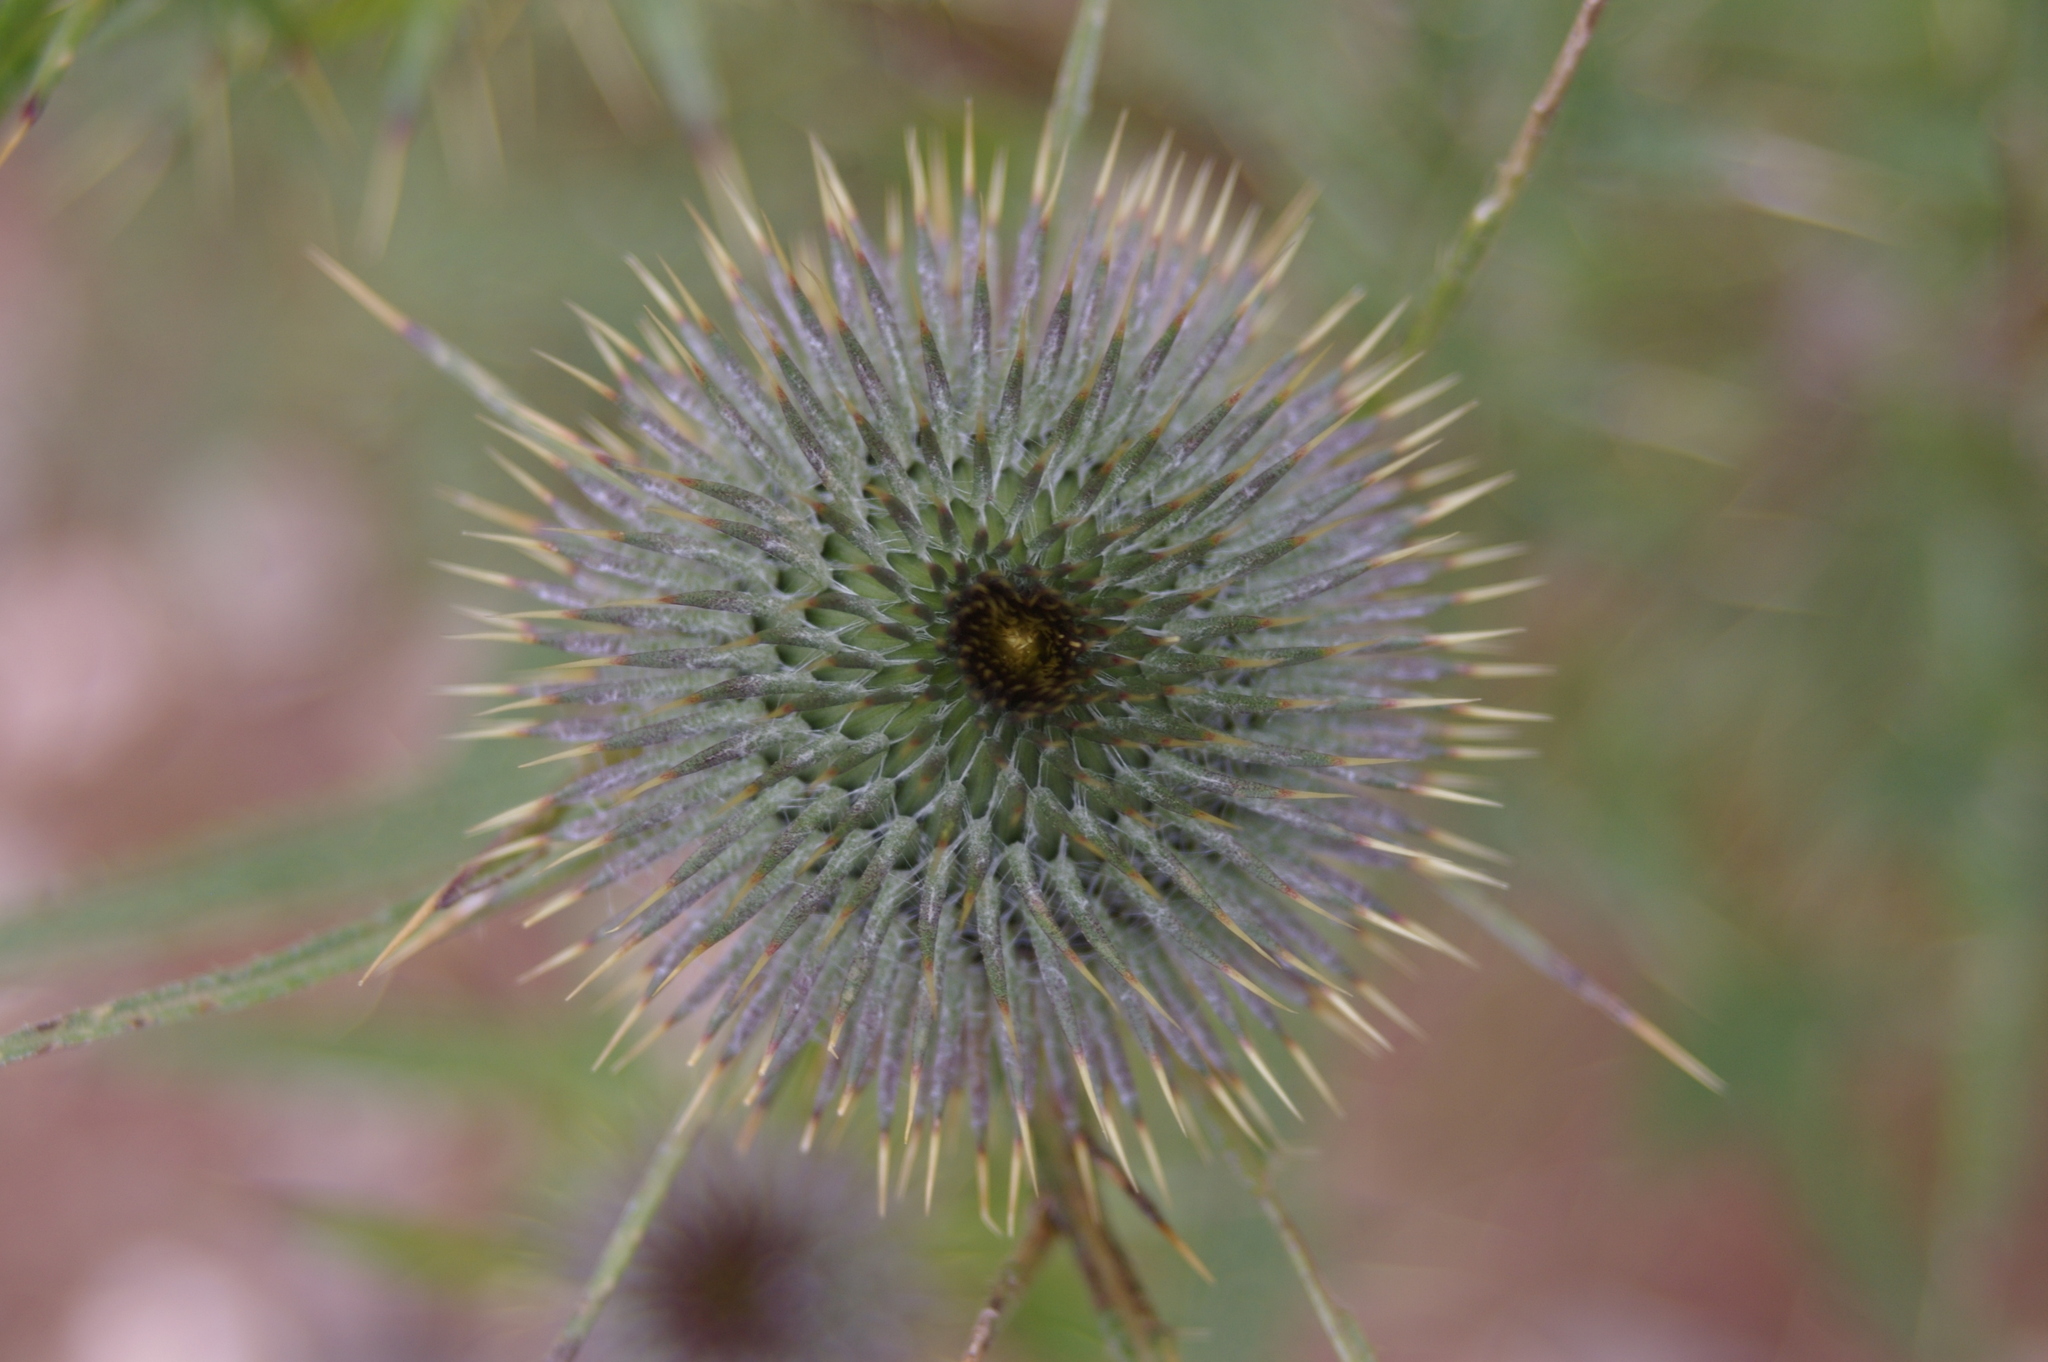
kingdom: Plantae
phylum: Tracheophyta
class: Magnoliopsida
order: Asterales
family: Asteraceae
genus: Cirsium
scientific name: Cirsium vulgare
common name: Bull thistle
